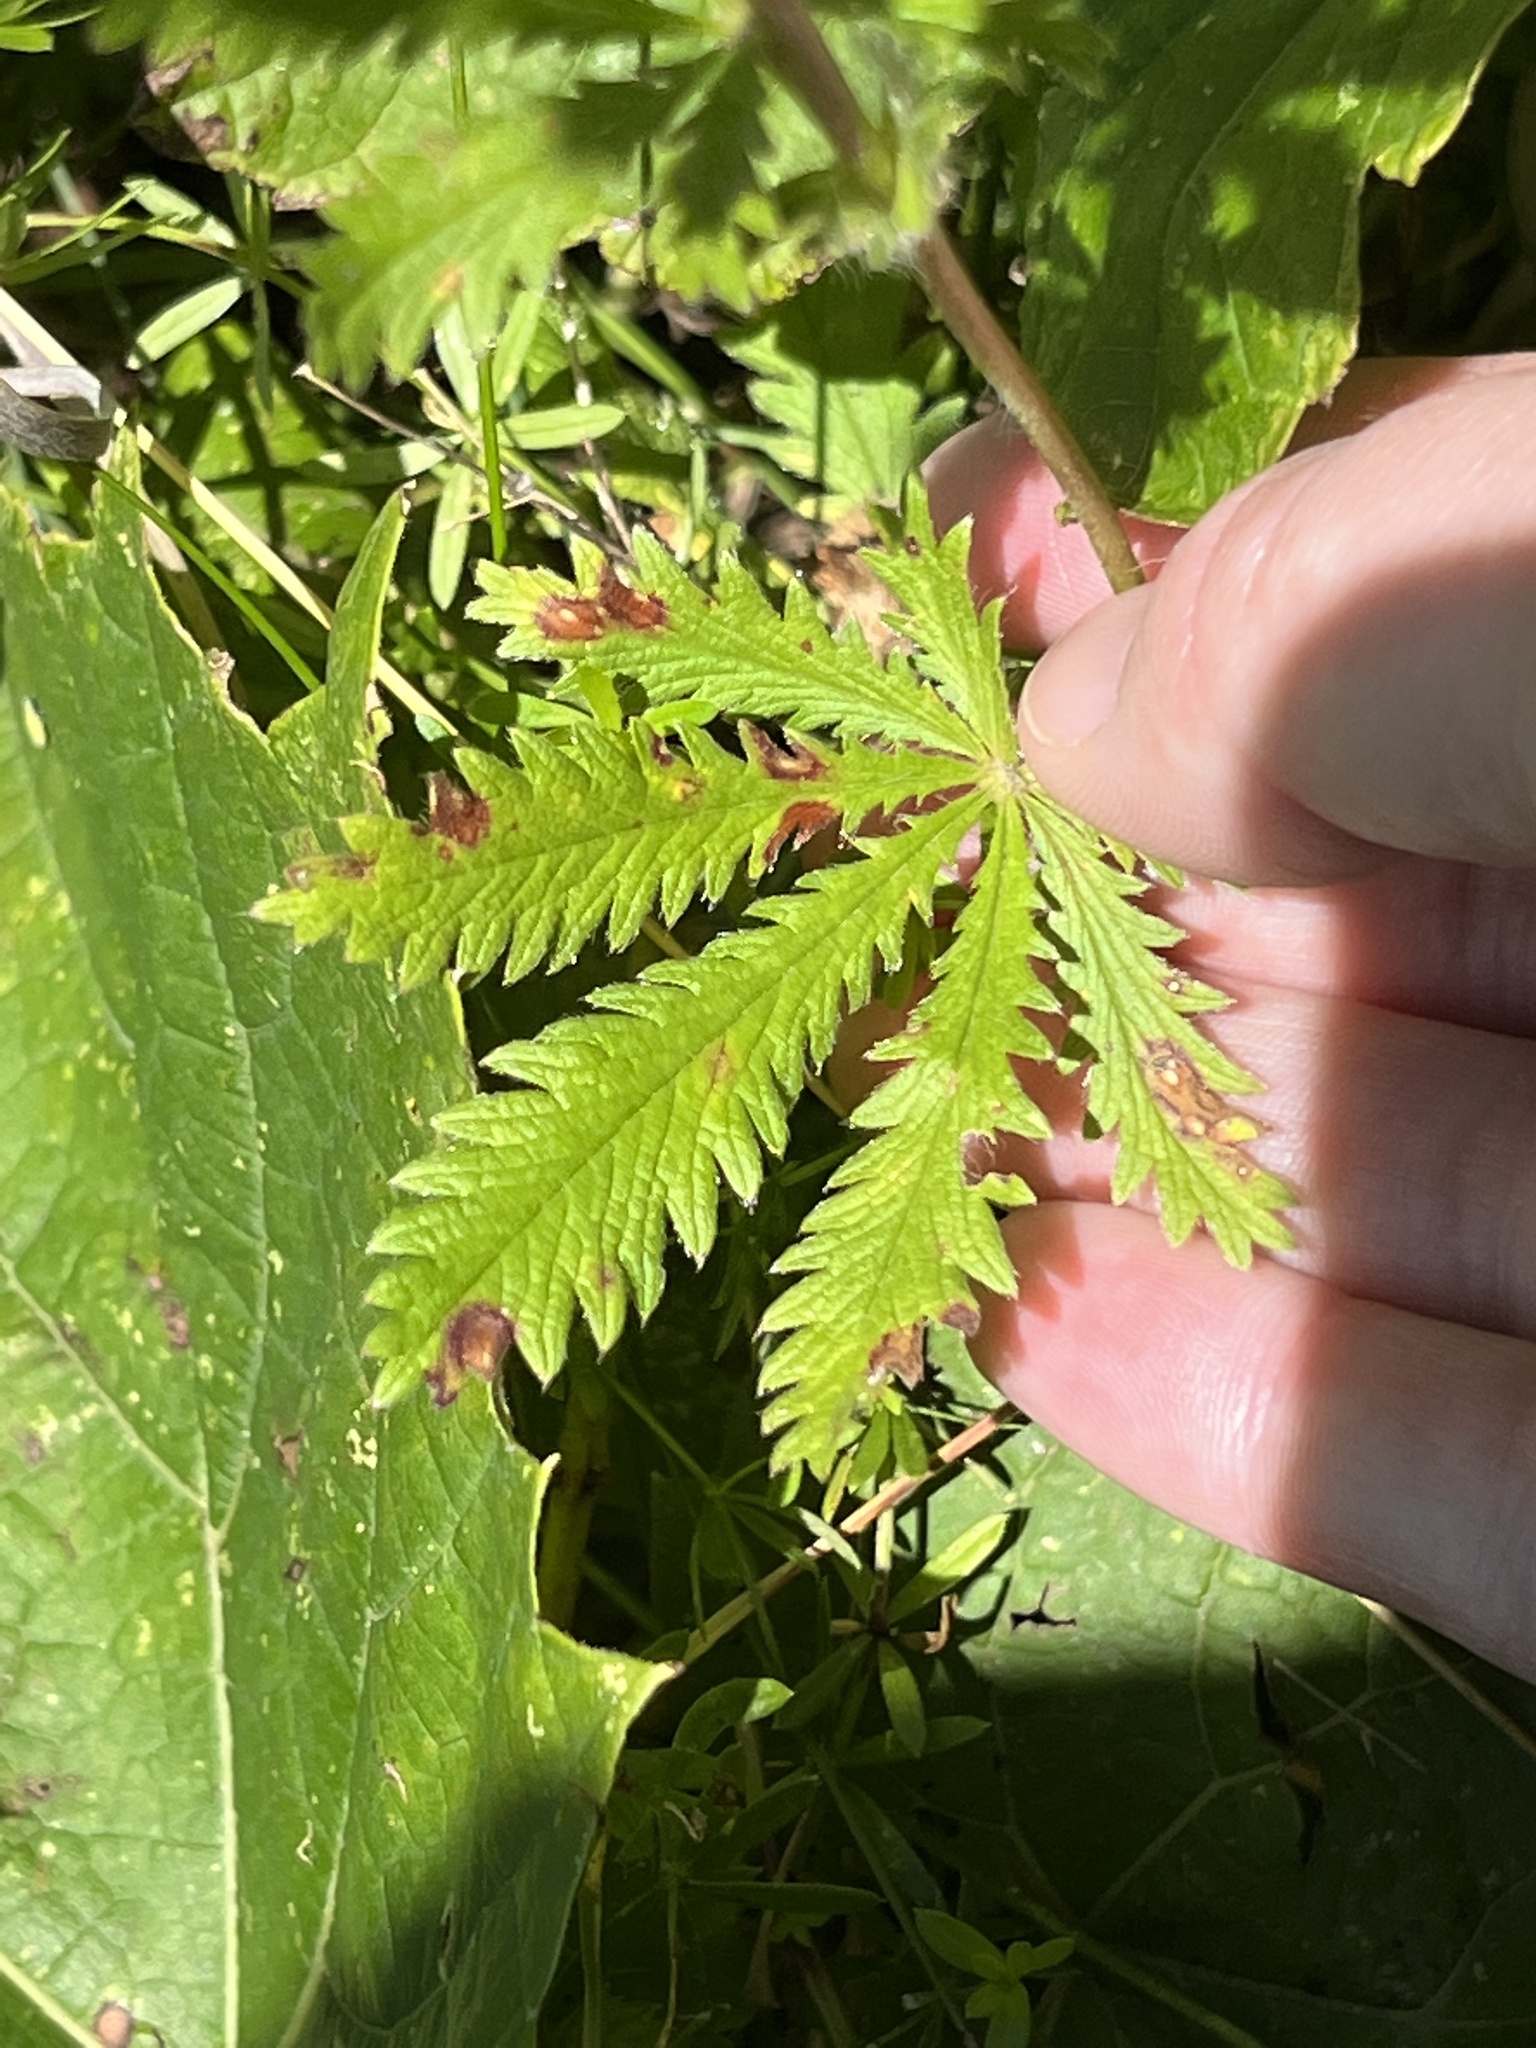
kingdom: Plantae
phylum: Tracheophyta
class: Magnoliopsida
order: Rosales
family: Rosaceae
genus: Potentilla
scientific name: Potentilla recta
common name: Sulphur cinquefoil
